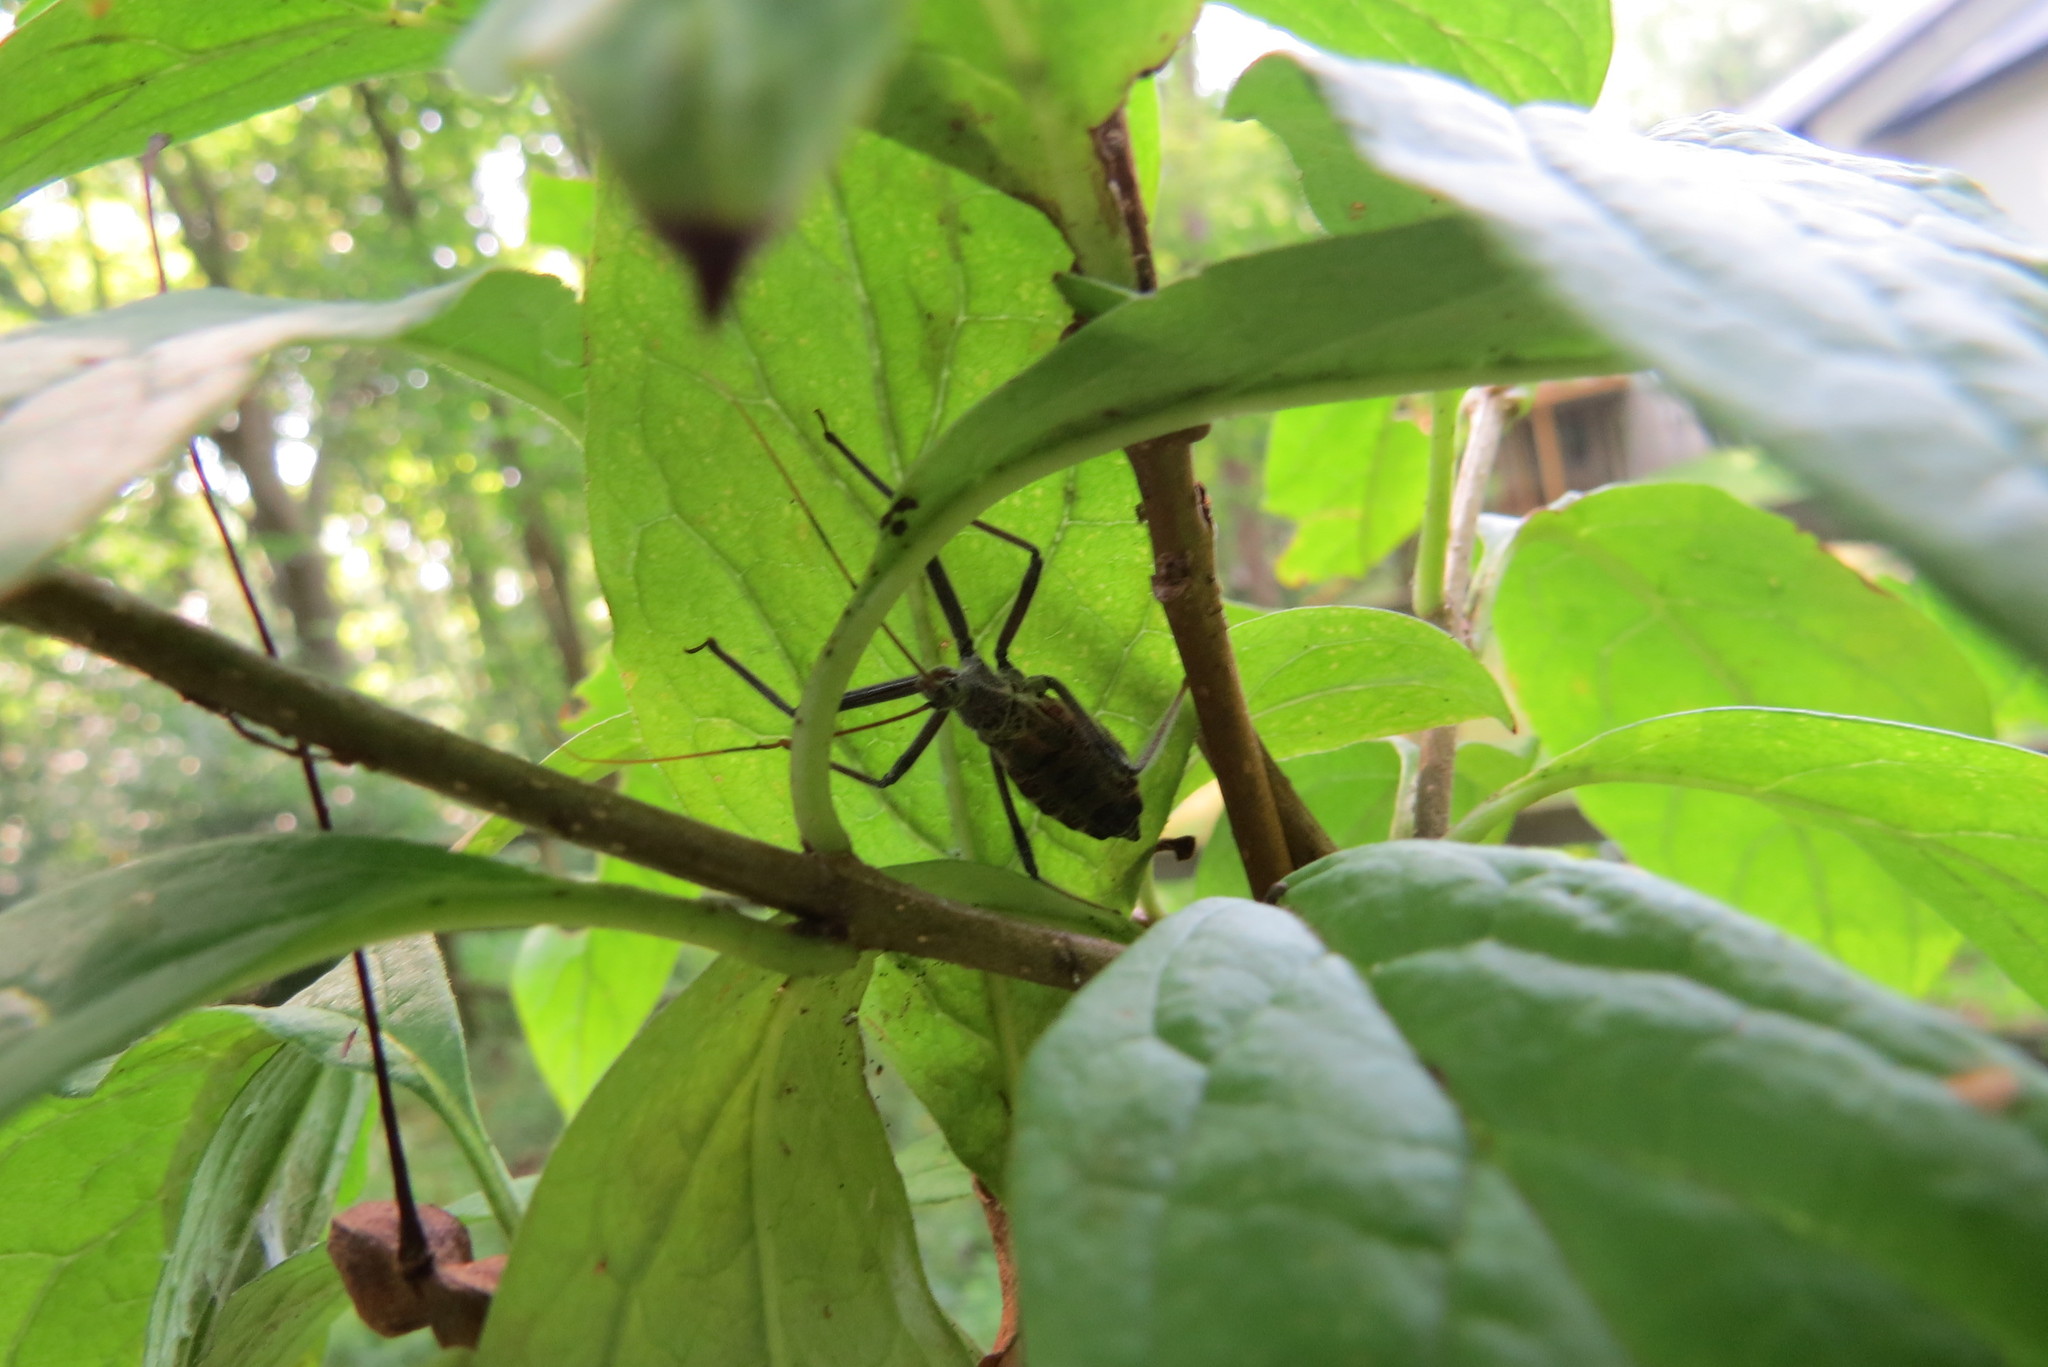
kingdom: Animalia
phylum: Arthropoda
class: Insecta
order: Hemiptera
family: Reduviidae
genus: Arilus
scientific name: Arilus cristatus
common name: North american wheel bug
